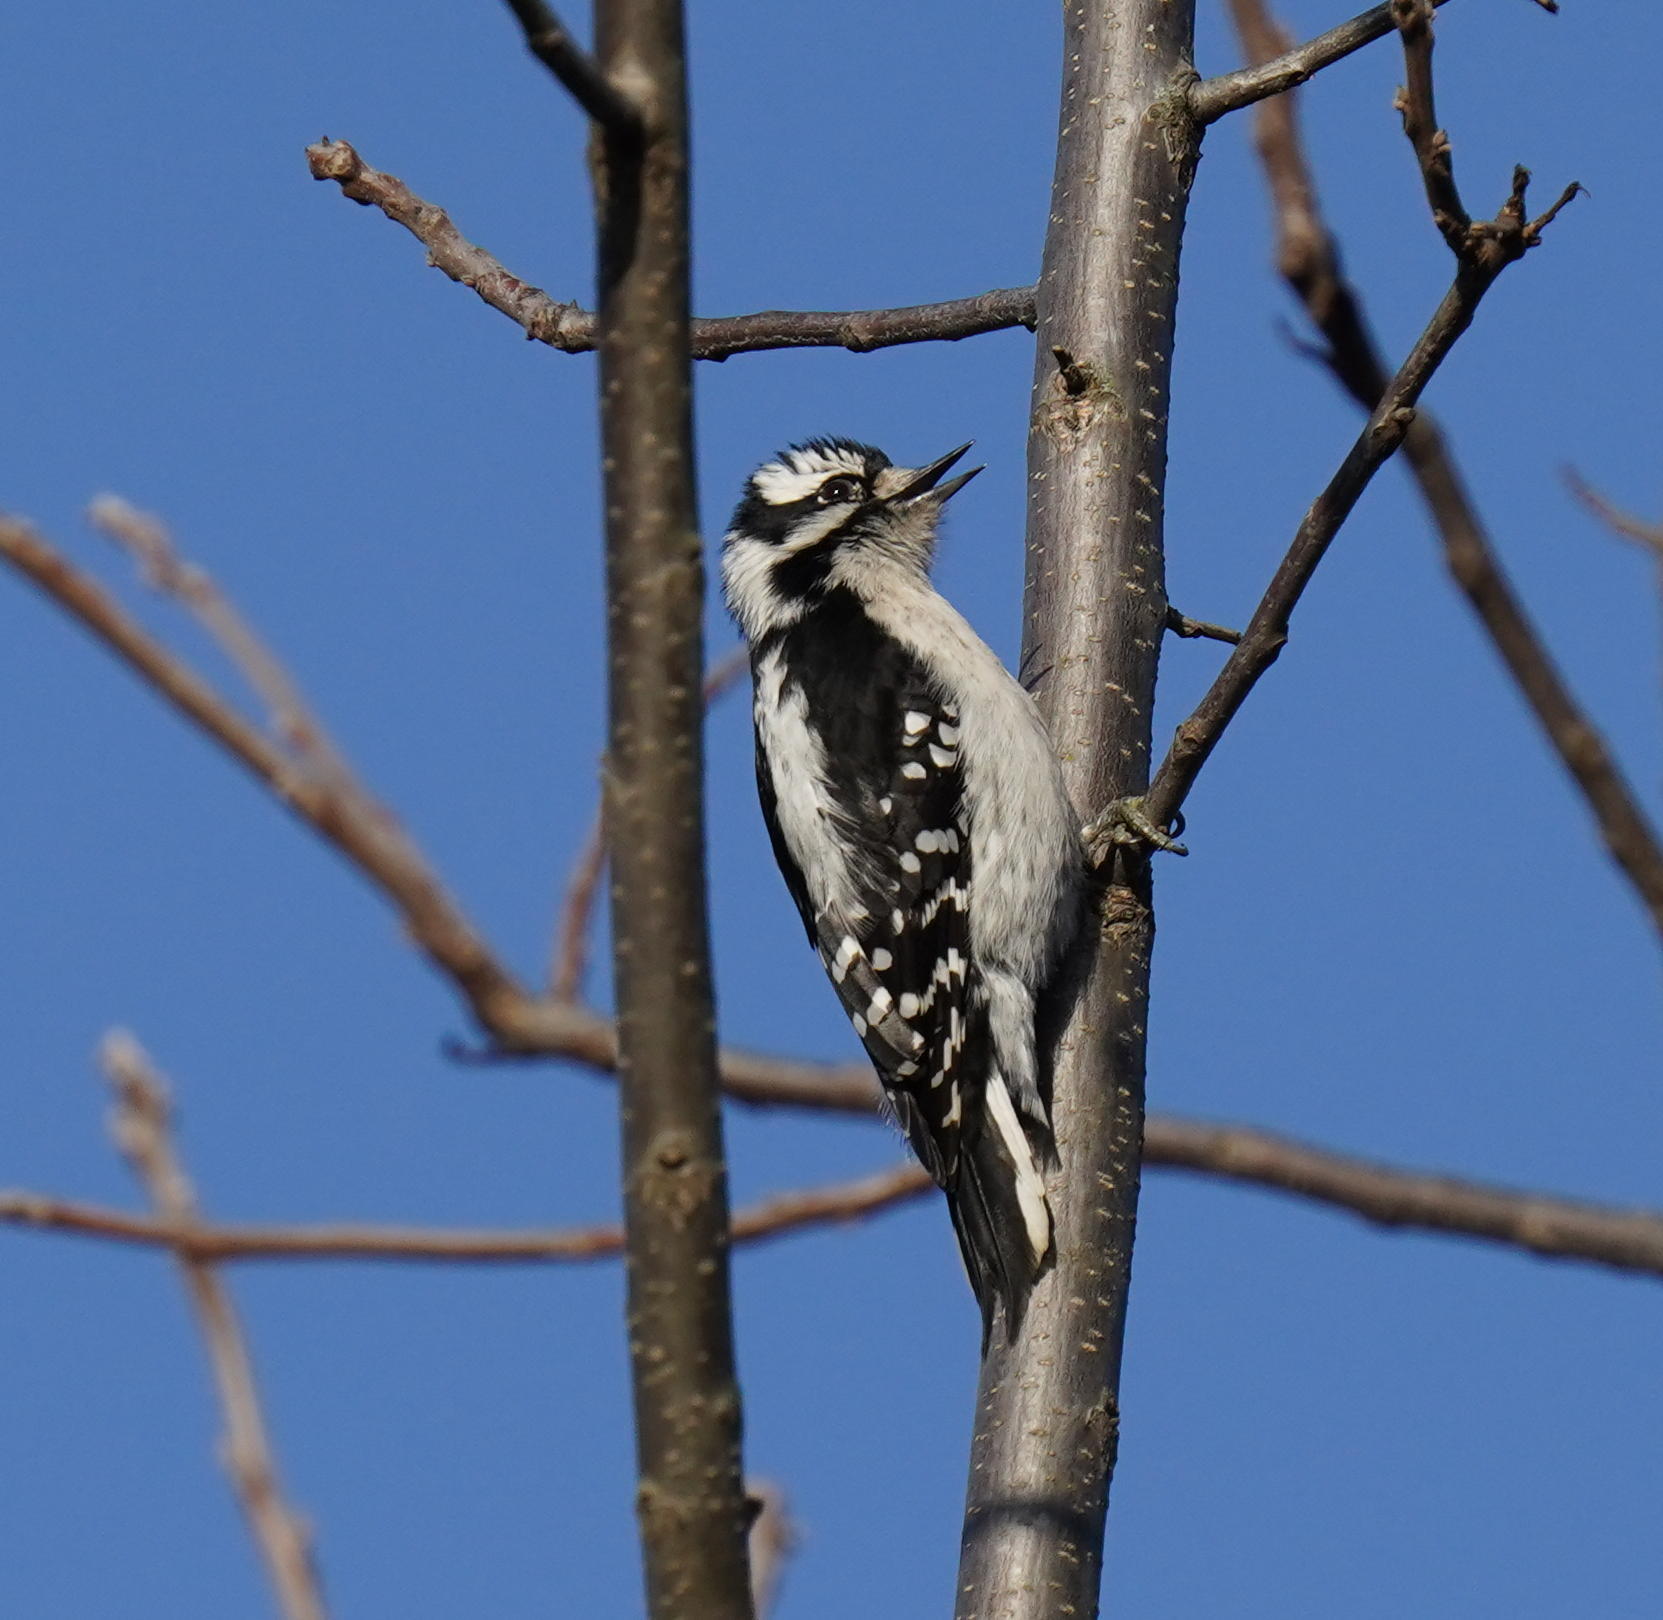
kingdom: Animalia
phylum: Chordata
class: Aves
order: Piciformes
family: Picidae
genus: Dryobates
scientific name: Dryobates pubescens
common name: Downy woodpecker
